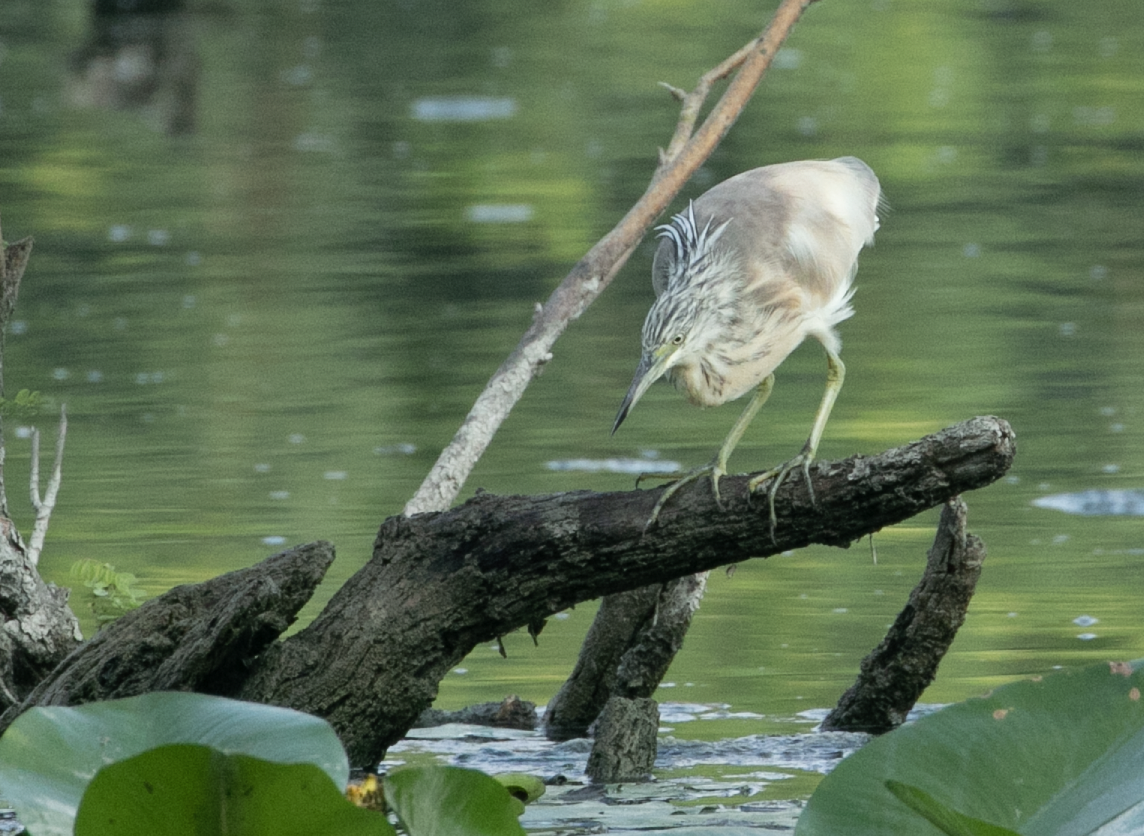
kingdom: Animalia
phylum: Chordata
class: Aves
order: Pelecaniformes
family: Ardeidae
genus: Ardeola
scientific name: Ardeola ralloides
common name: Squacco heron
